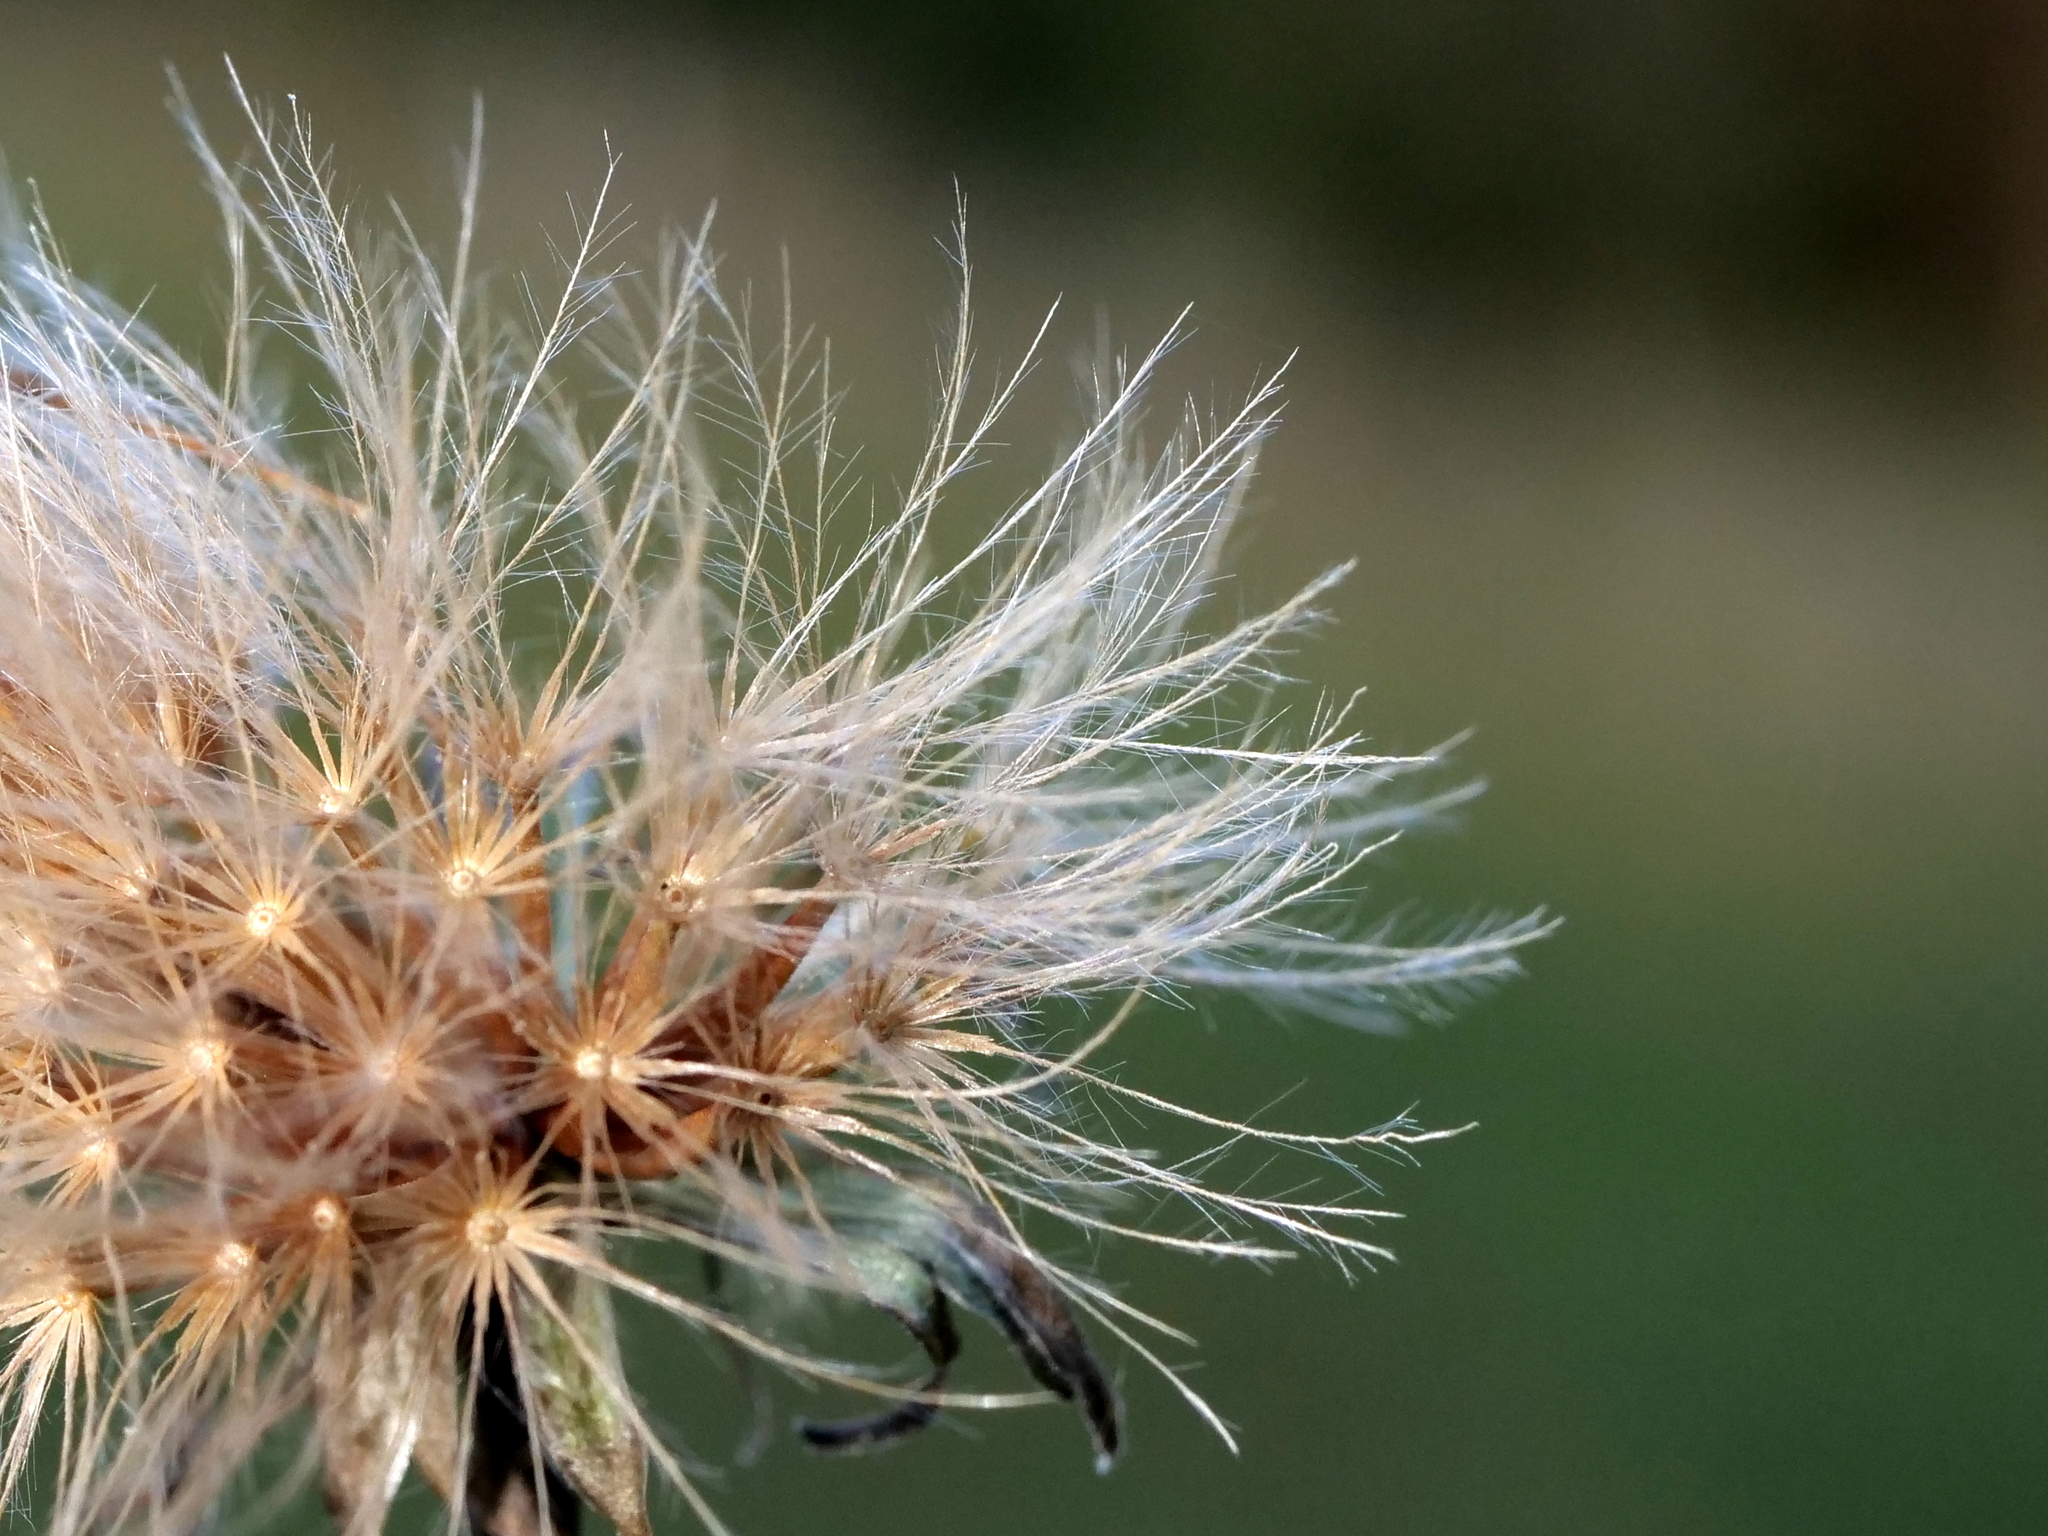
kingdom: Plantae
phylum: Tracheophyta
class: Magnoliopsida
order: Asterales
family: Asteraceae
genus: Leontodon
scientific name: Leontodon hispidus
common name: Rough hawkbit
